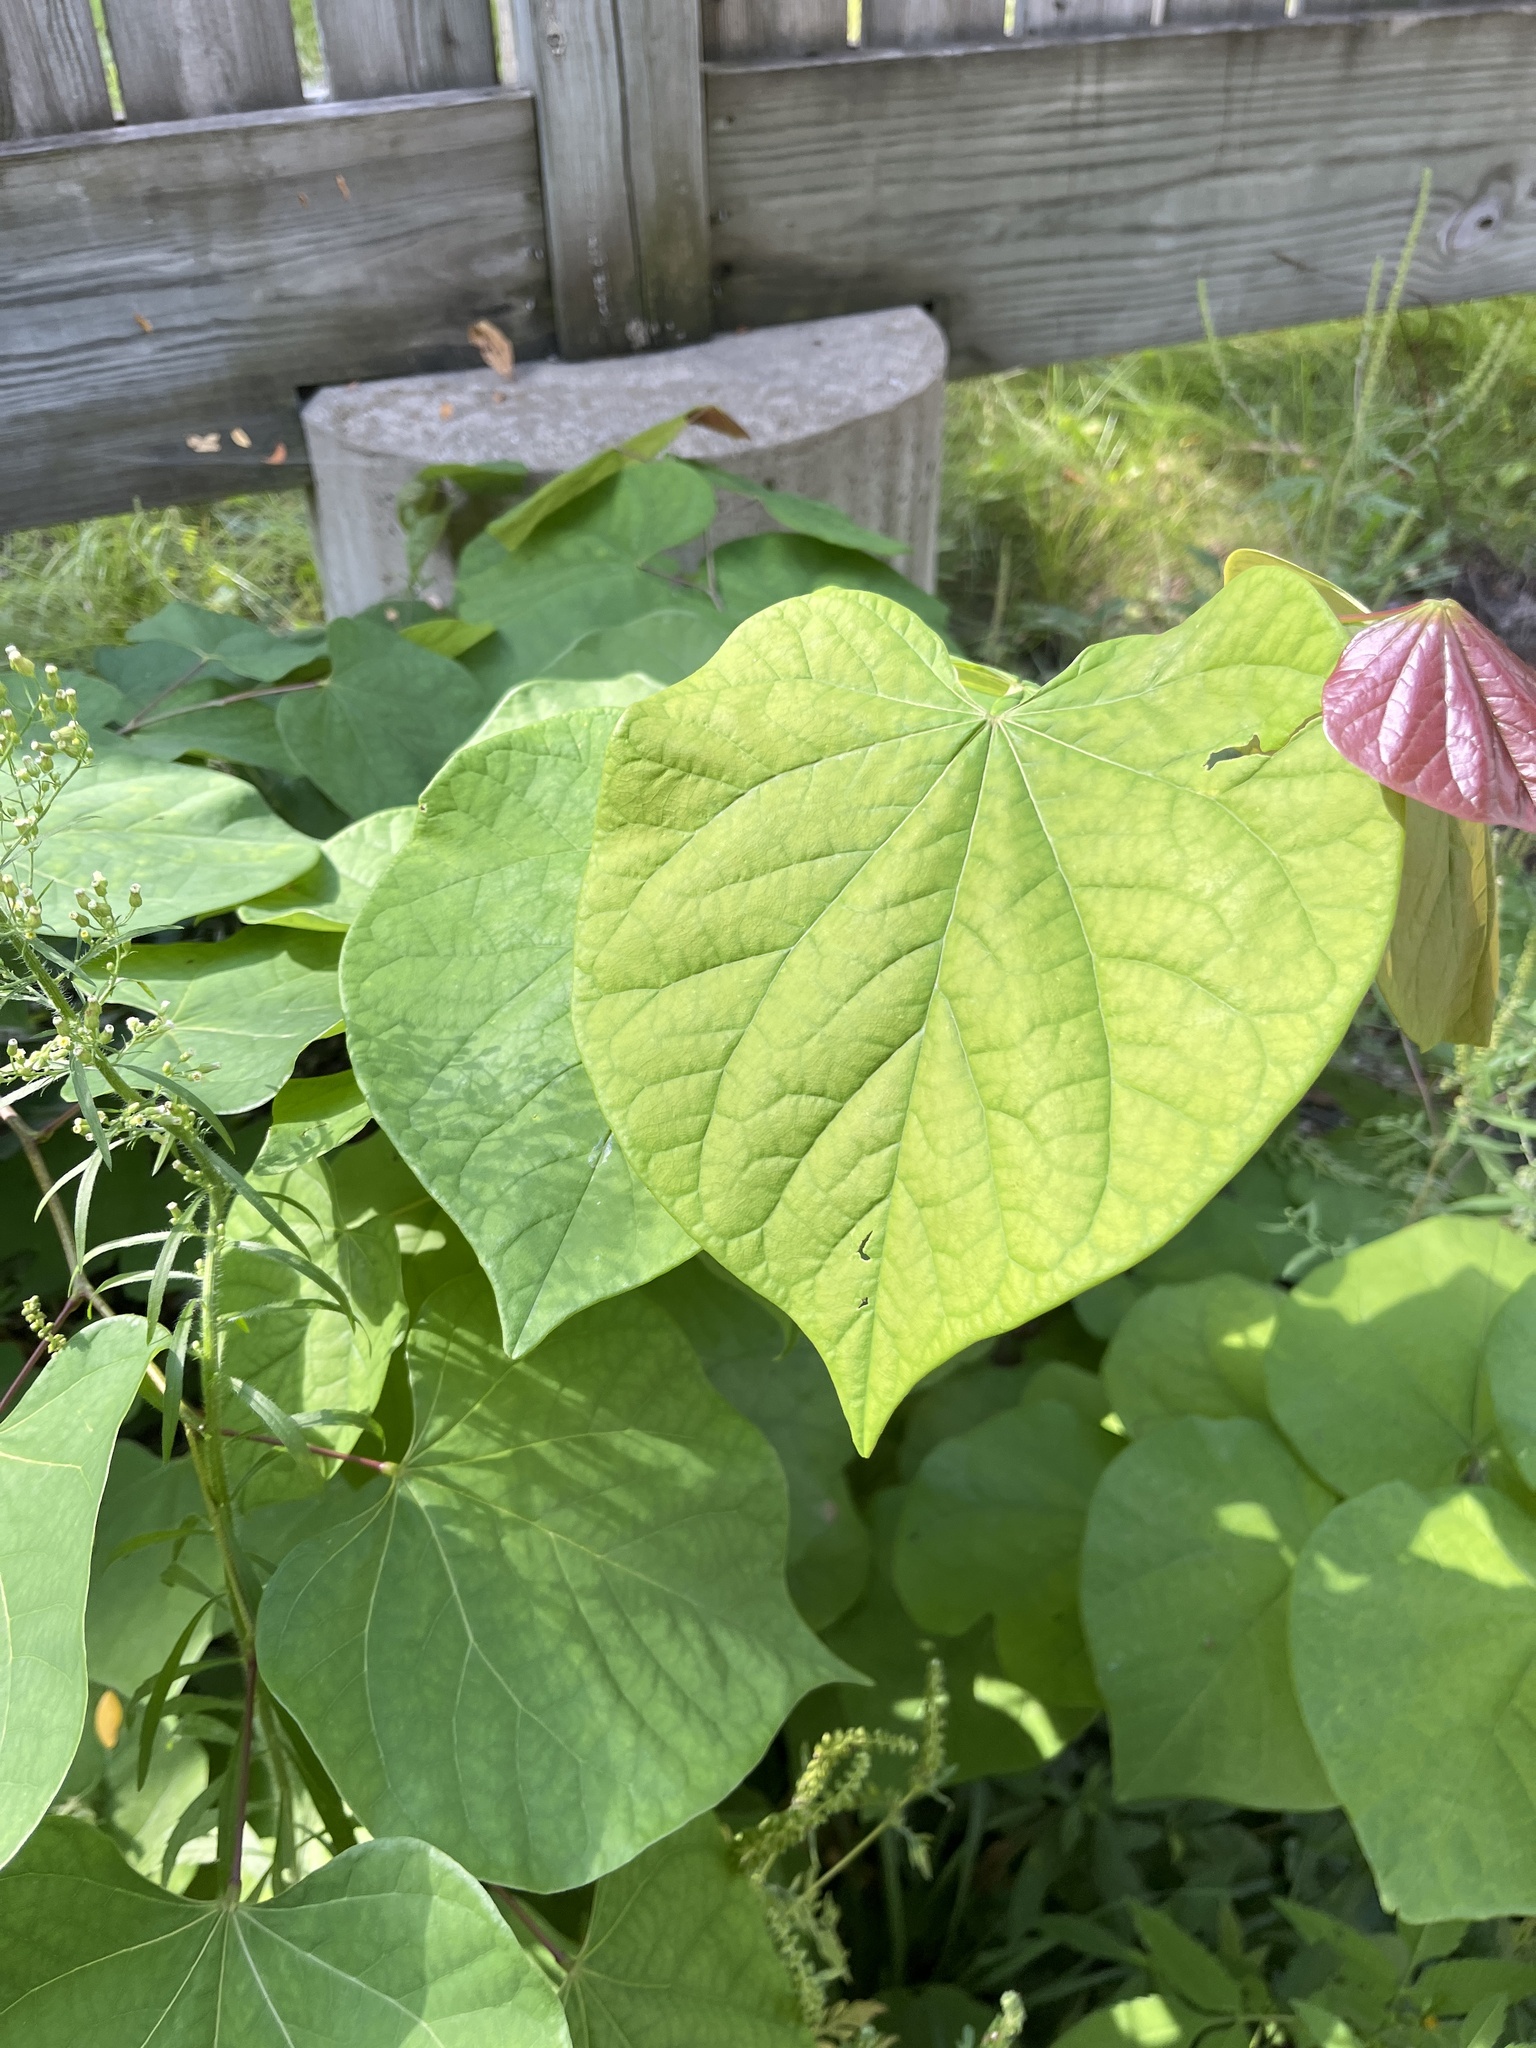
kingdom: Plantae
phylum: Tracheophyta
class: Magnoliopsida
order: Fabales
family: Fabaceae
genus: Cercis
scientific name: Cercis canadensis
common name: Eastern redbud
